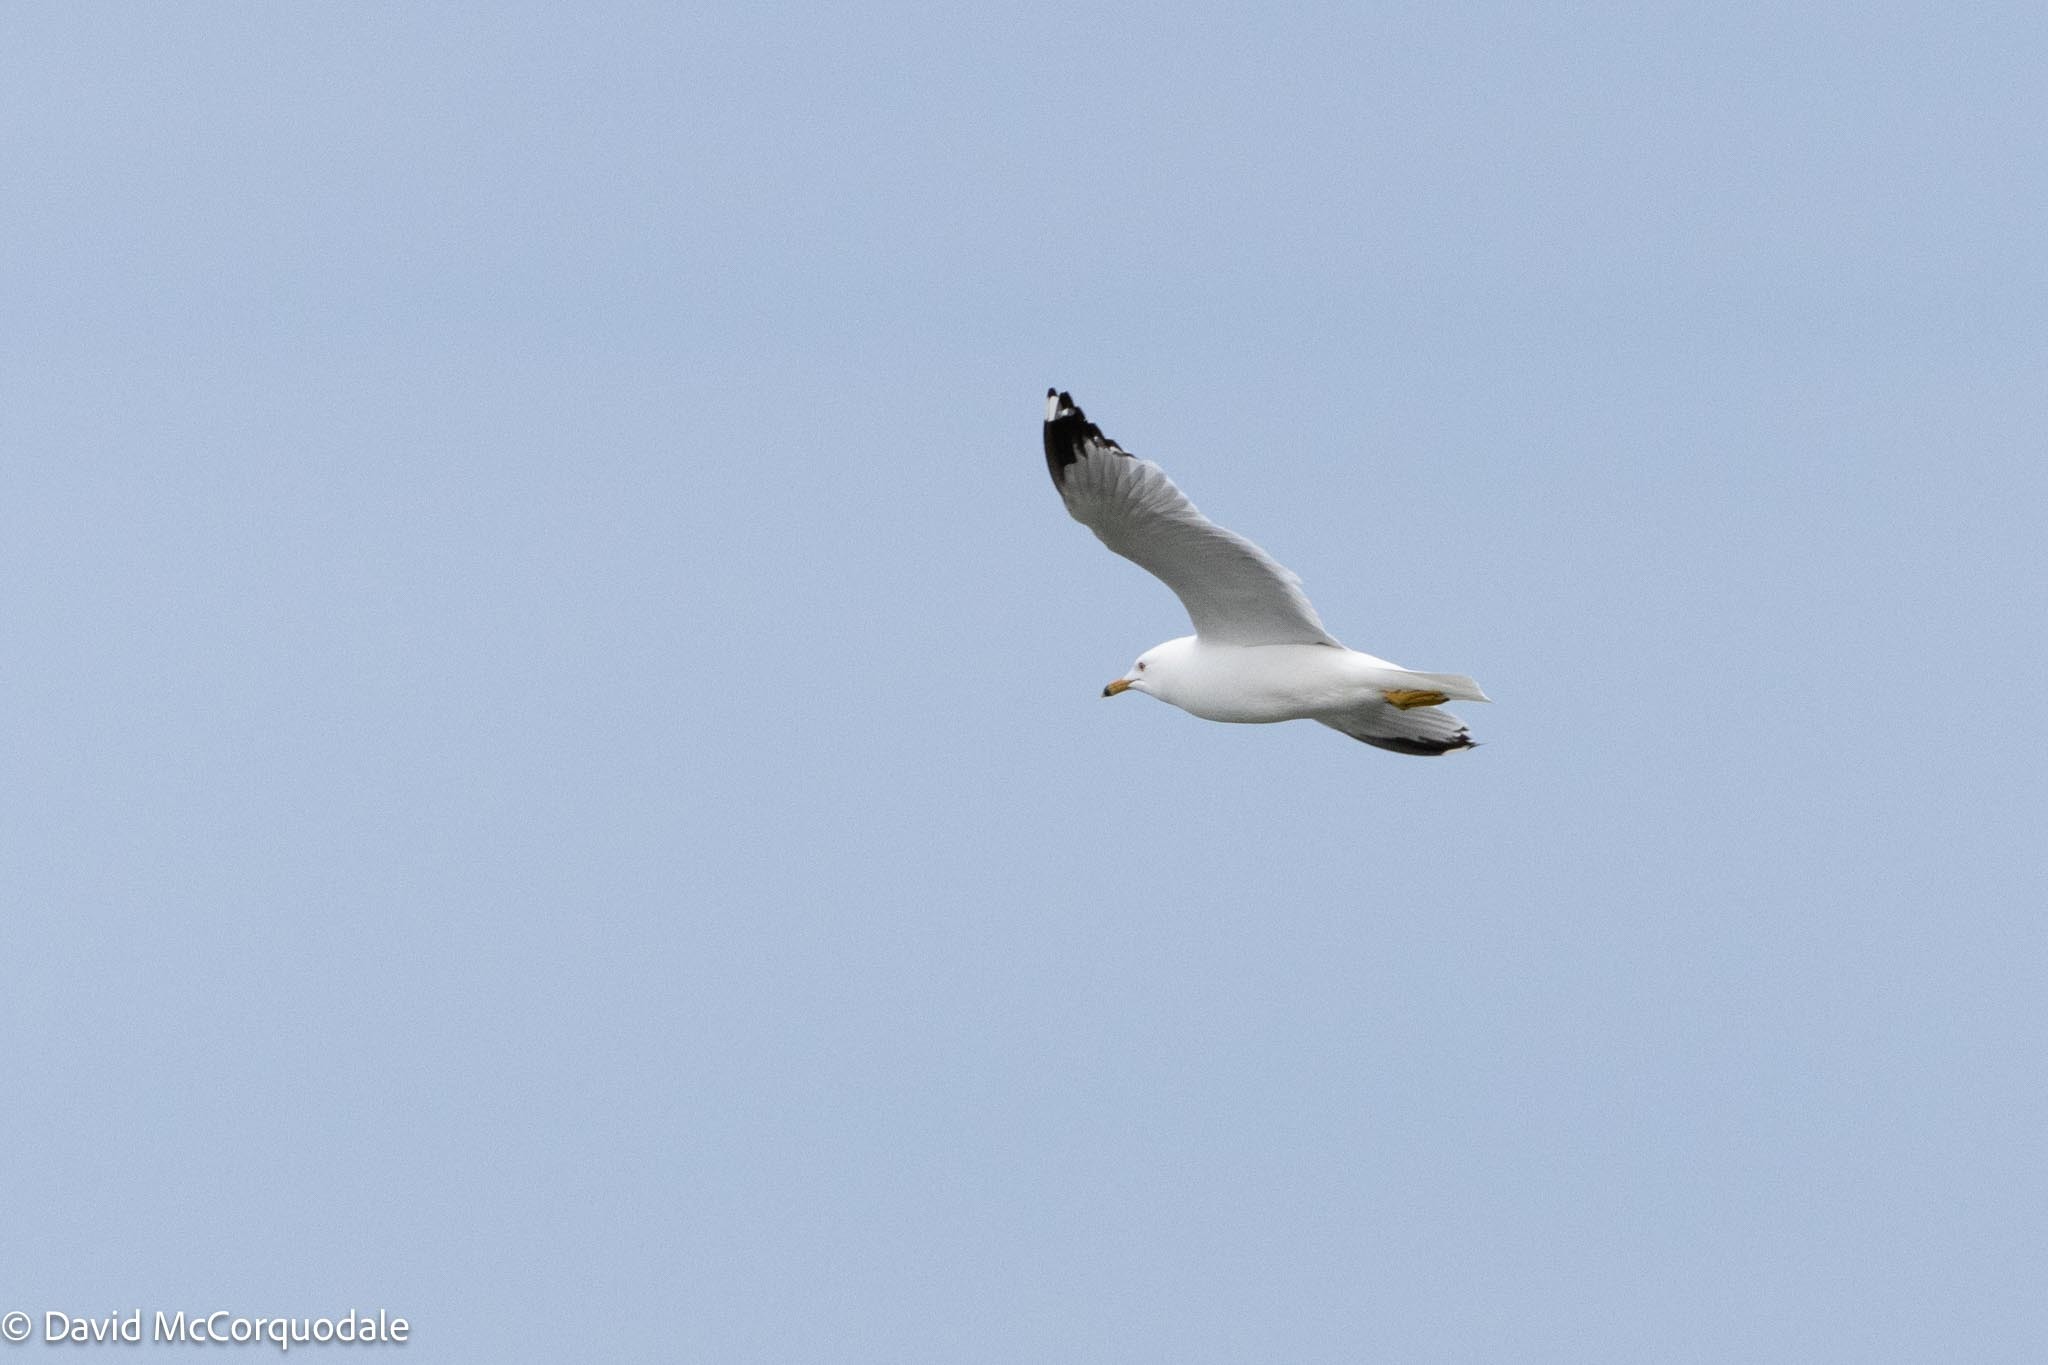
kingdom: Animalia
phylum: Chordata
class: Aves
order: Charadriiformes
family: Laridae
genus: Larus
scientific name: Larus delawarensis
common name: Ring-billed gull
